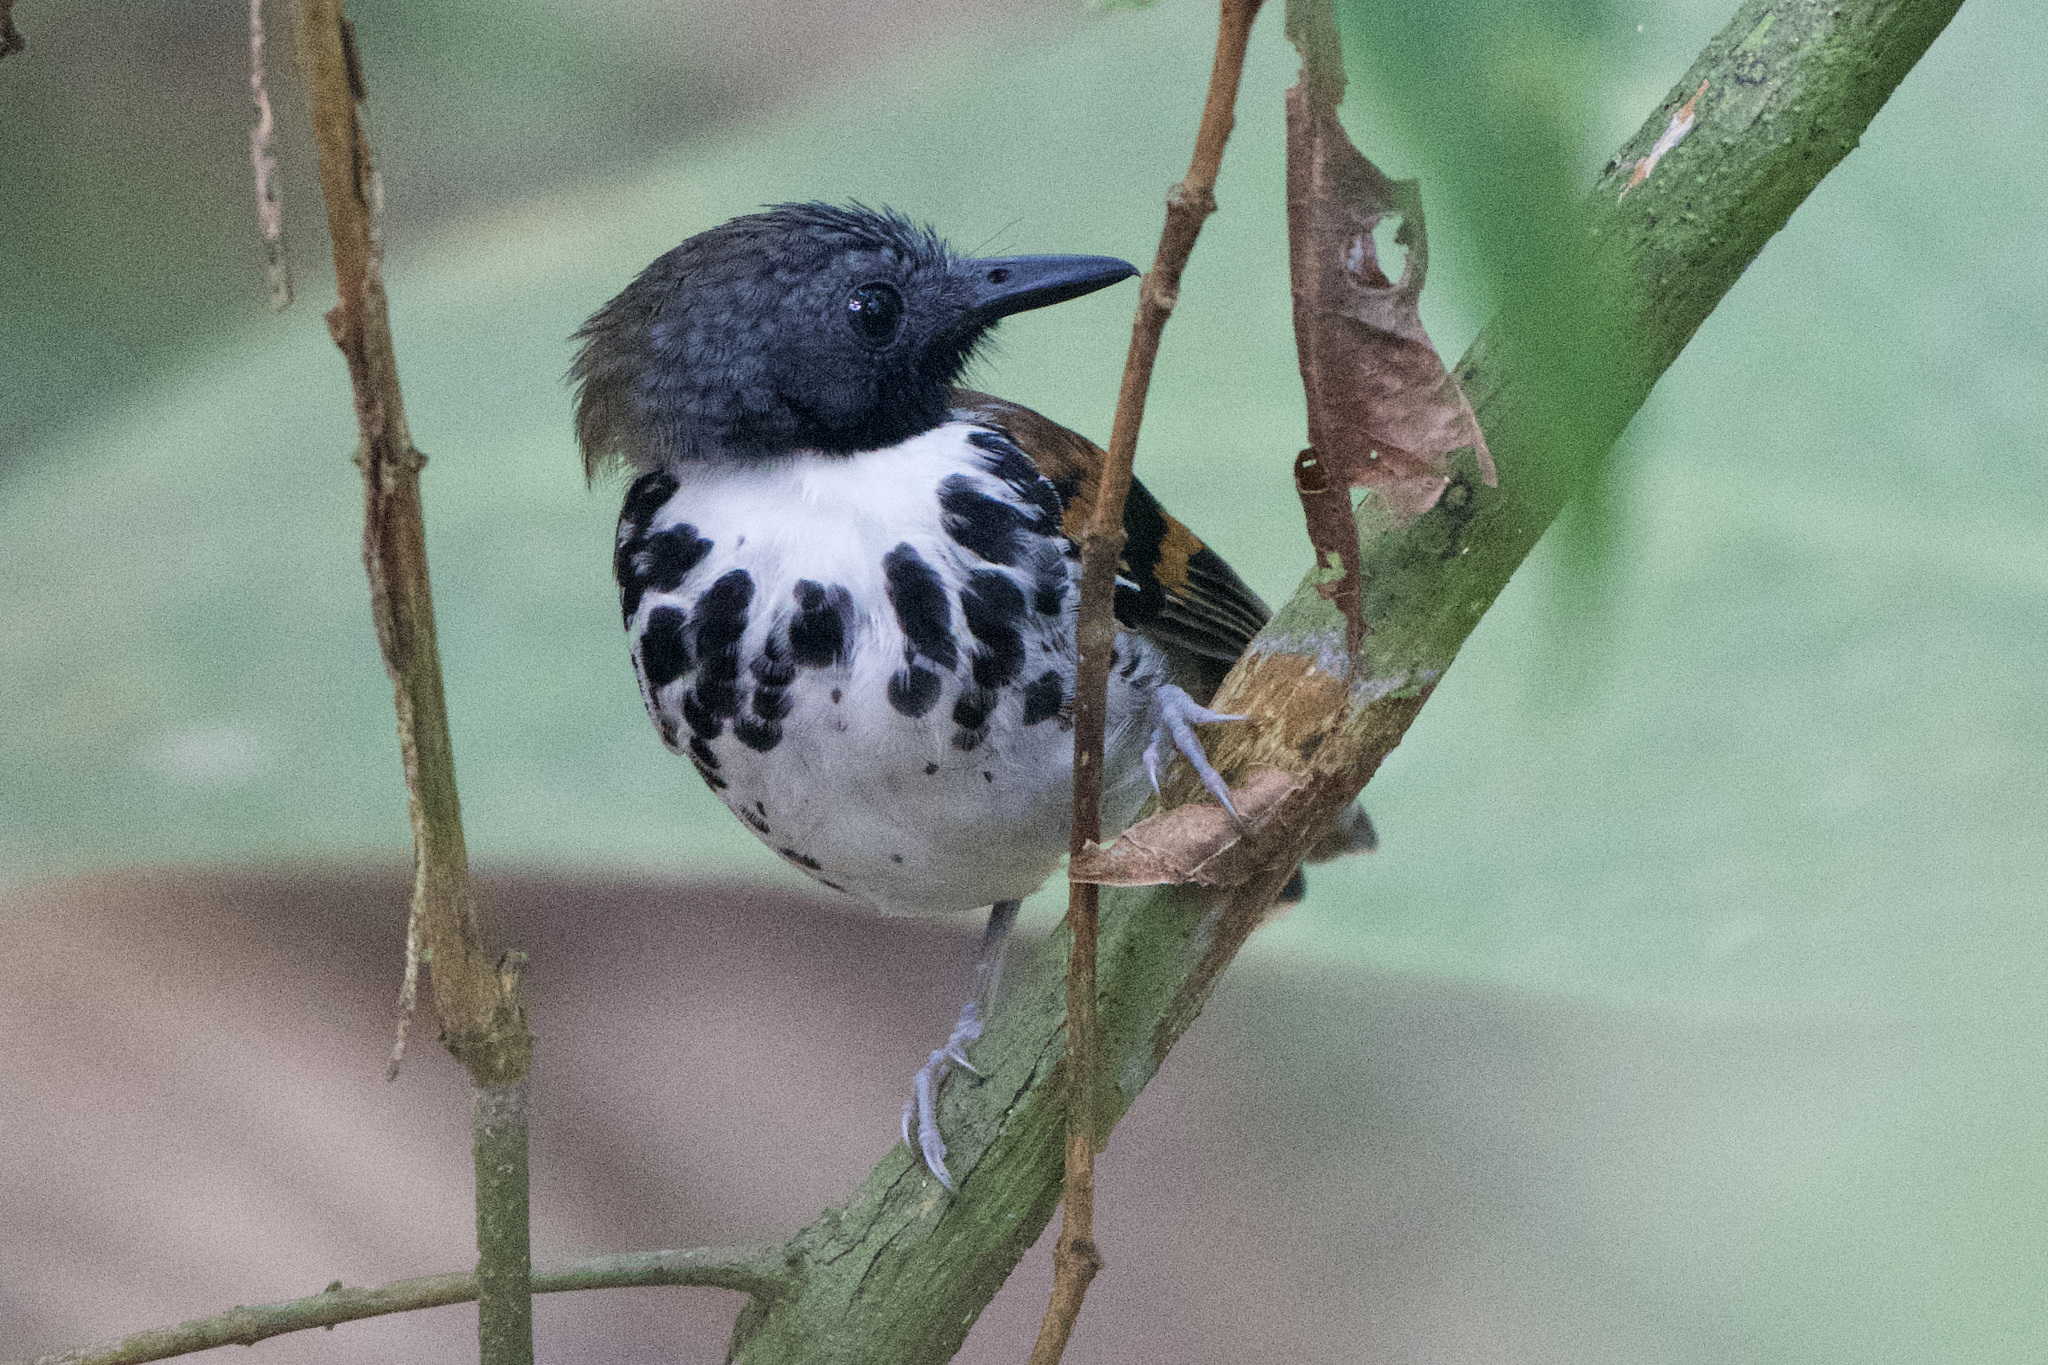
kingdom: Animalia
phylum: Chordata
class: Aves
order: Passeriformes
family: Thamnophilidae
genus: Hylophylax
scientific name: Hylophylax naevioides
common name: Spotted antbird
